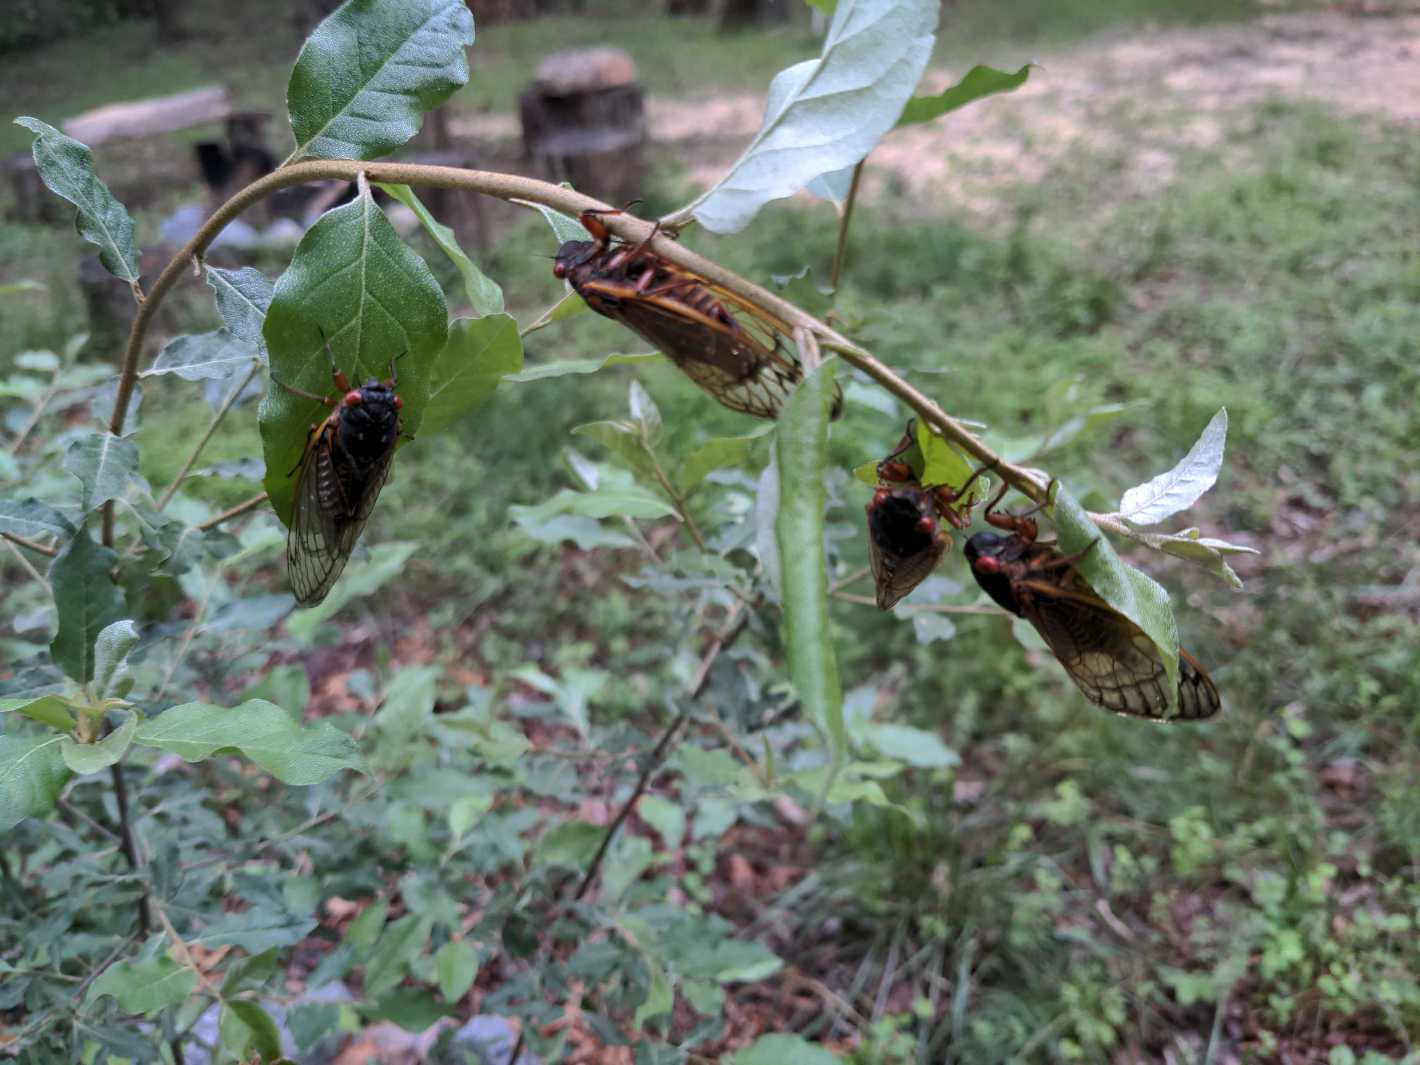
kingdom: Animalia
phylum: Arthropoda
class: Insecta
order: Hemiptera
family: Cicadidae
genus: Magicicada
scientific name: Magicicada septendecim
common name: Periodical cicada
